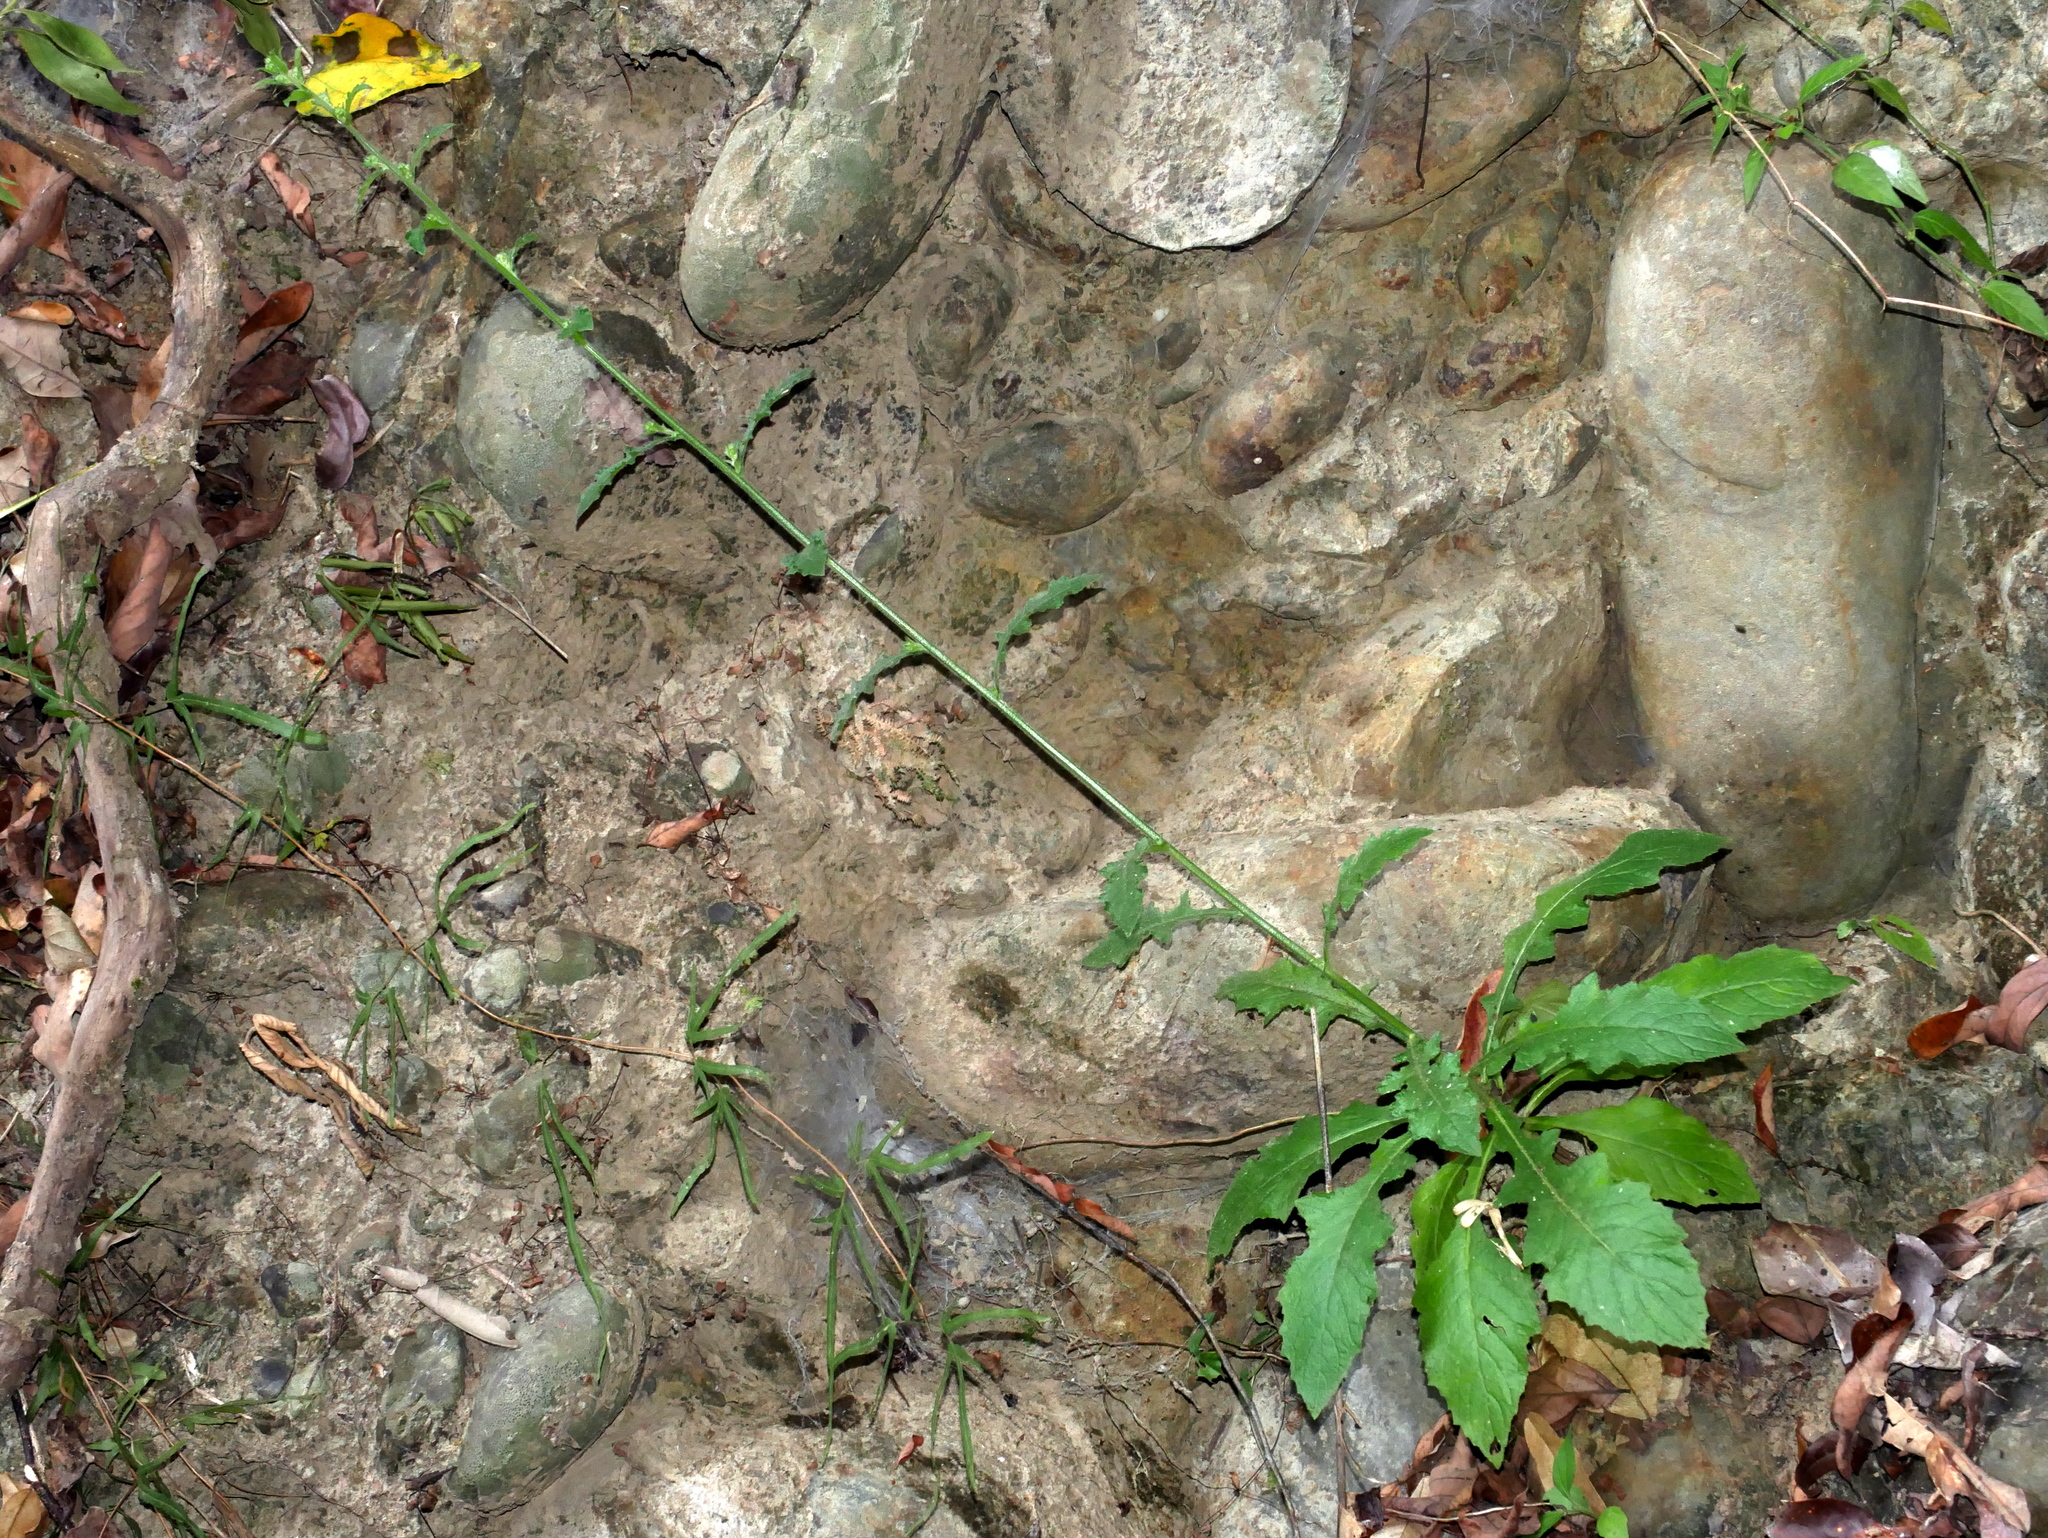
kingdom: Plantae
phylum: Tracheophyta
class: Magnoliopsida
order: Asterales
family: Asteraceae
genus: Blumea
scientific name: Blumea sinuata
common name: Cutleaf false oxtongue
